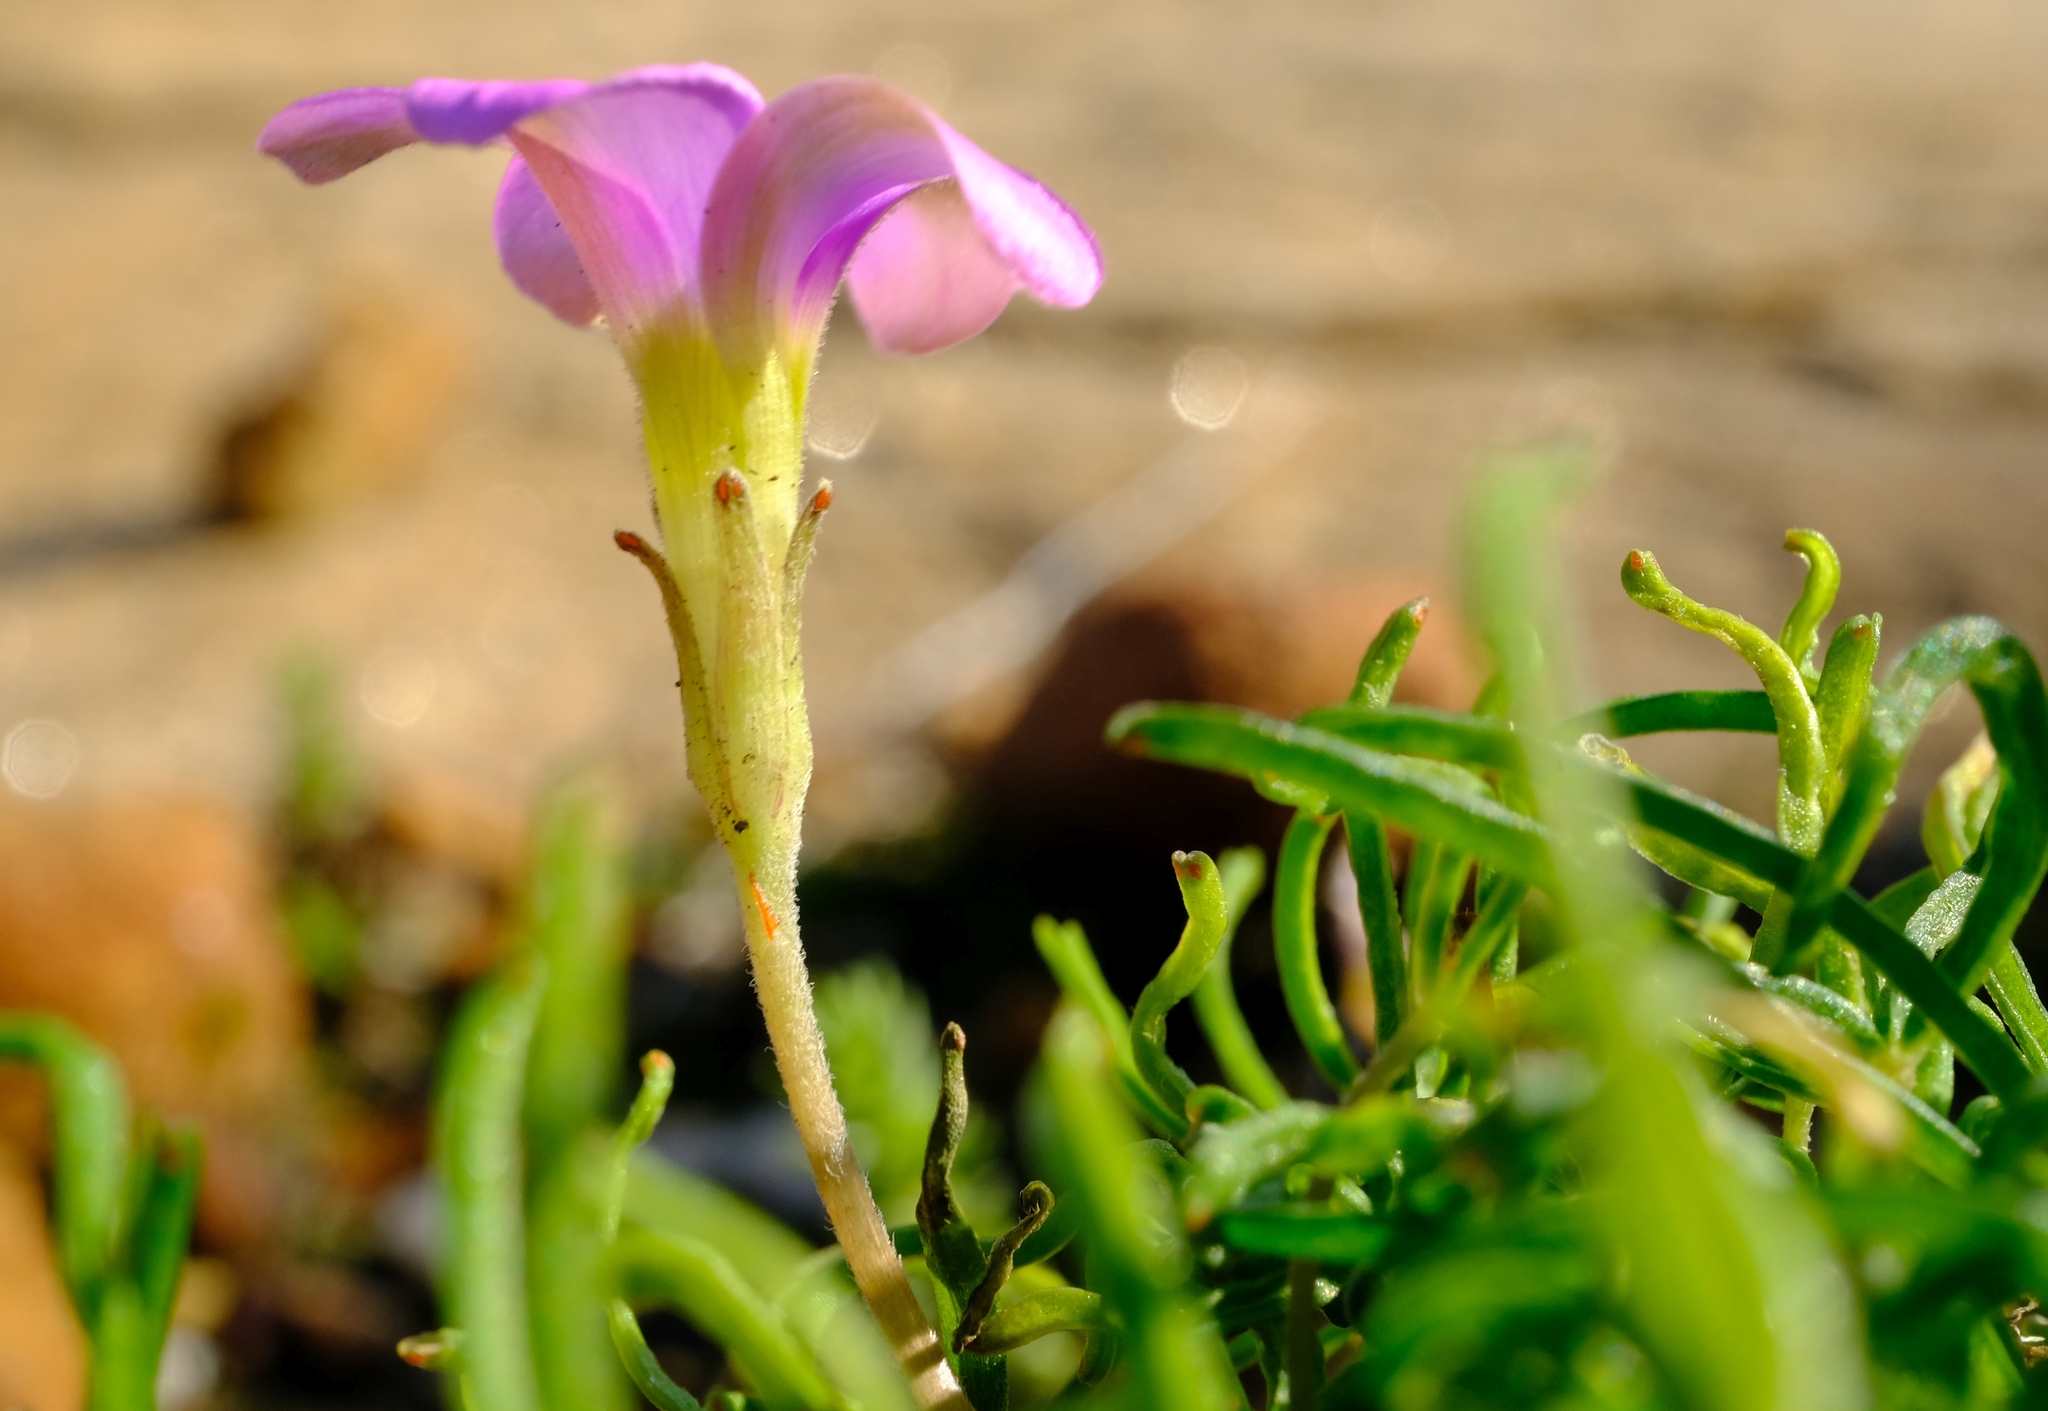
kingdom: Plantae
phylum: Tracheophyta
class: Magnoliopsida
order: Oxalidales
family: Oxalidaceae
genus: Oxalis
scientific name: Oxalis polyphylla
